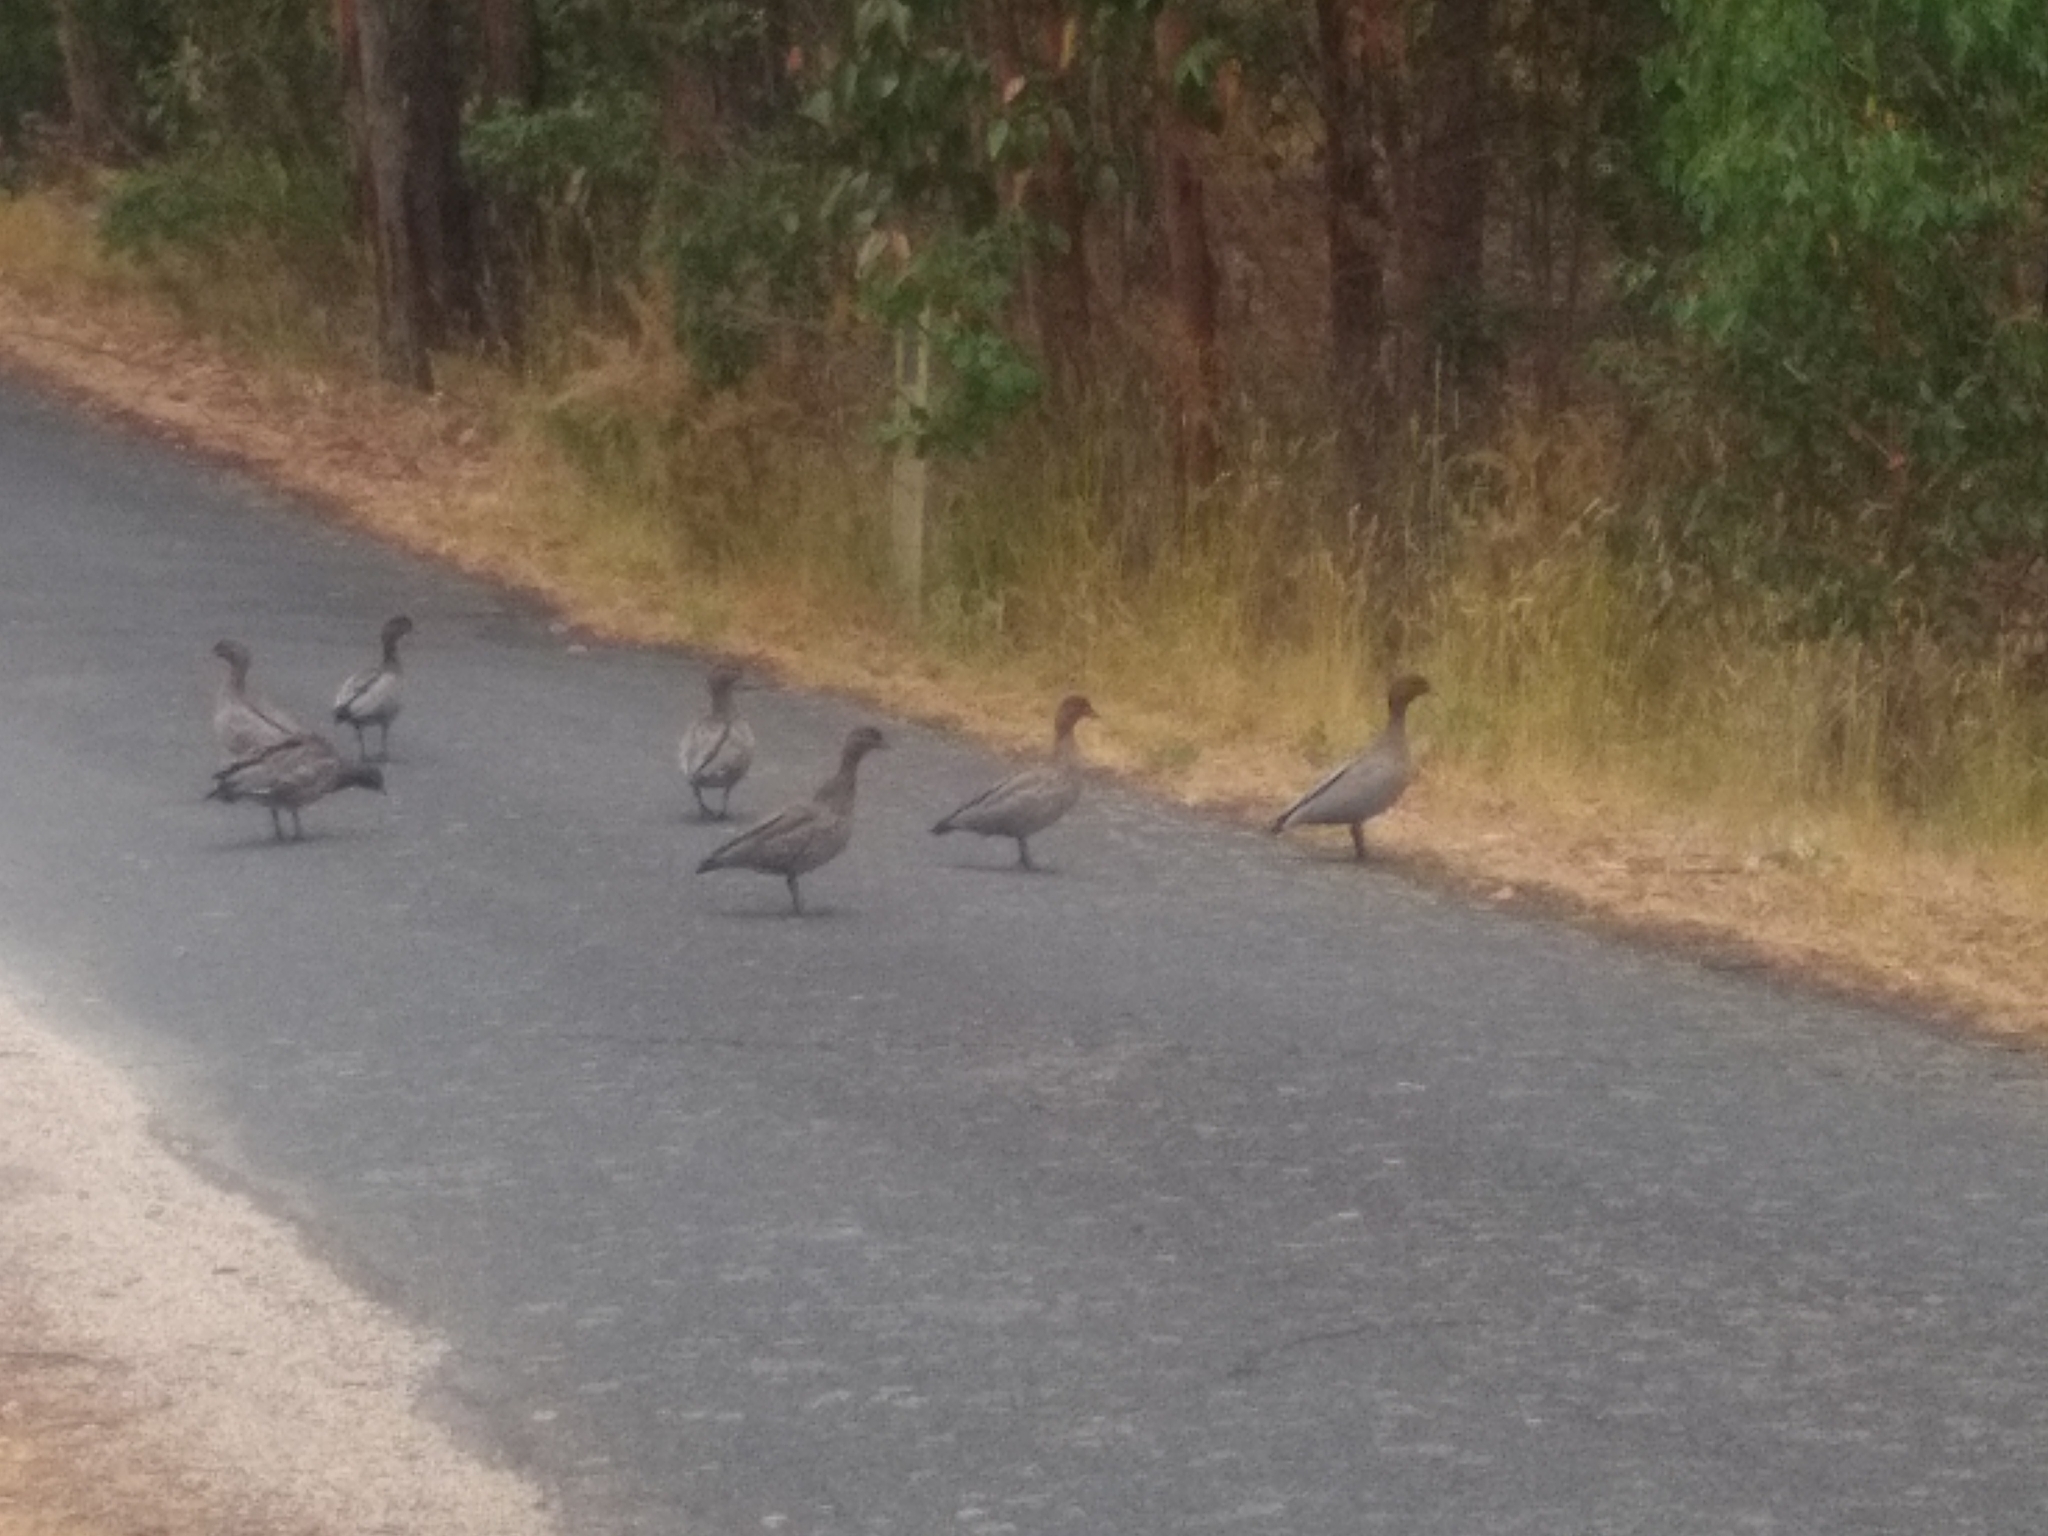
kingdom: Animalia
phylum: Chordata
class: Aves
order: Anseriformes
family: Anatidae
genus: Chenonetta
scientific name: Chenonetta jubata
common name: Maned duck
